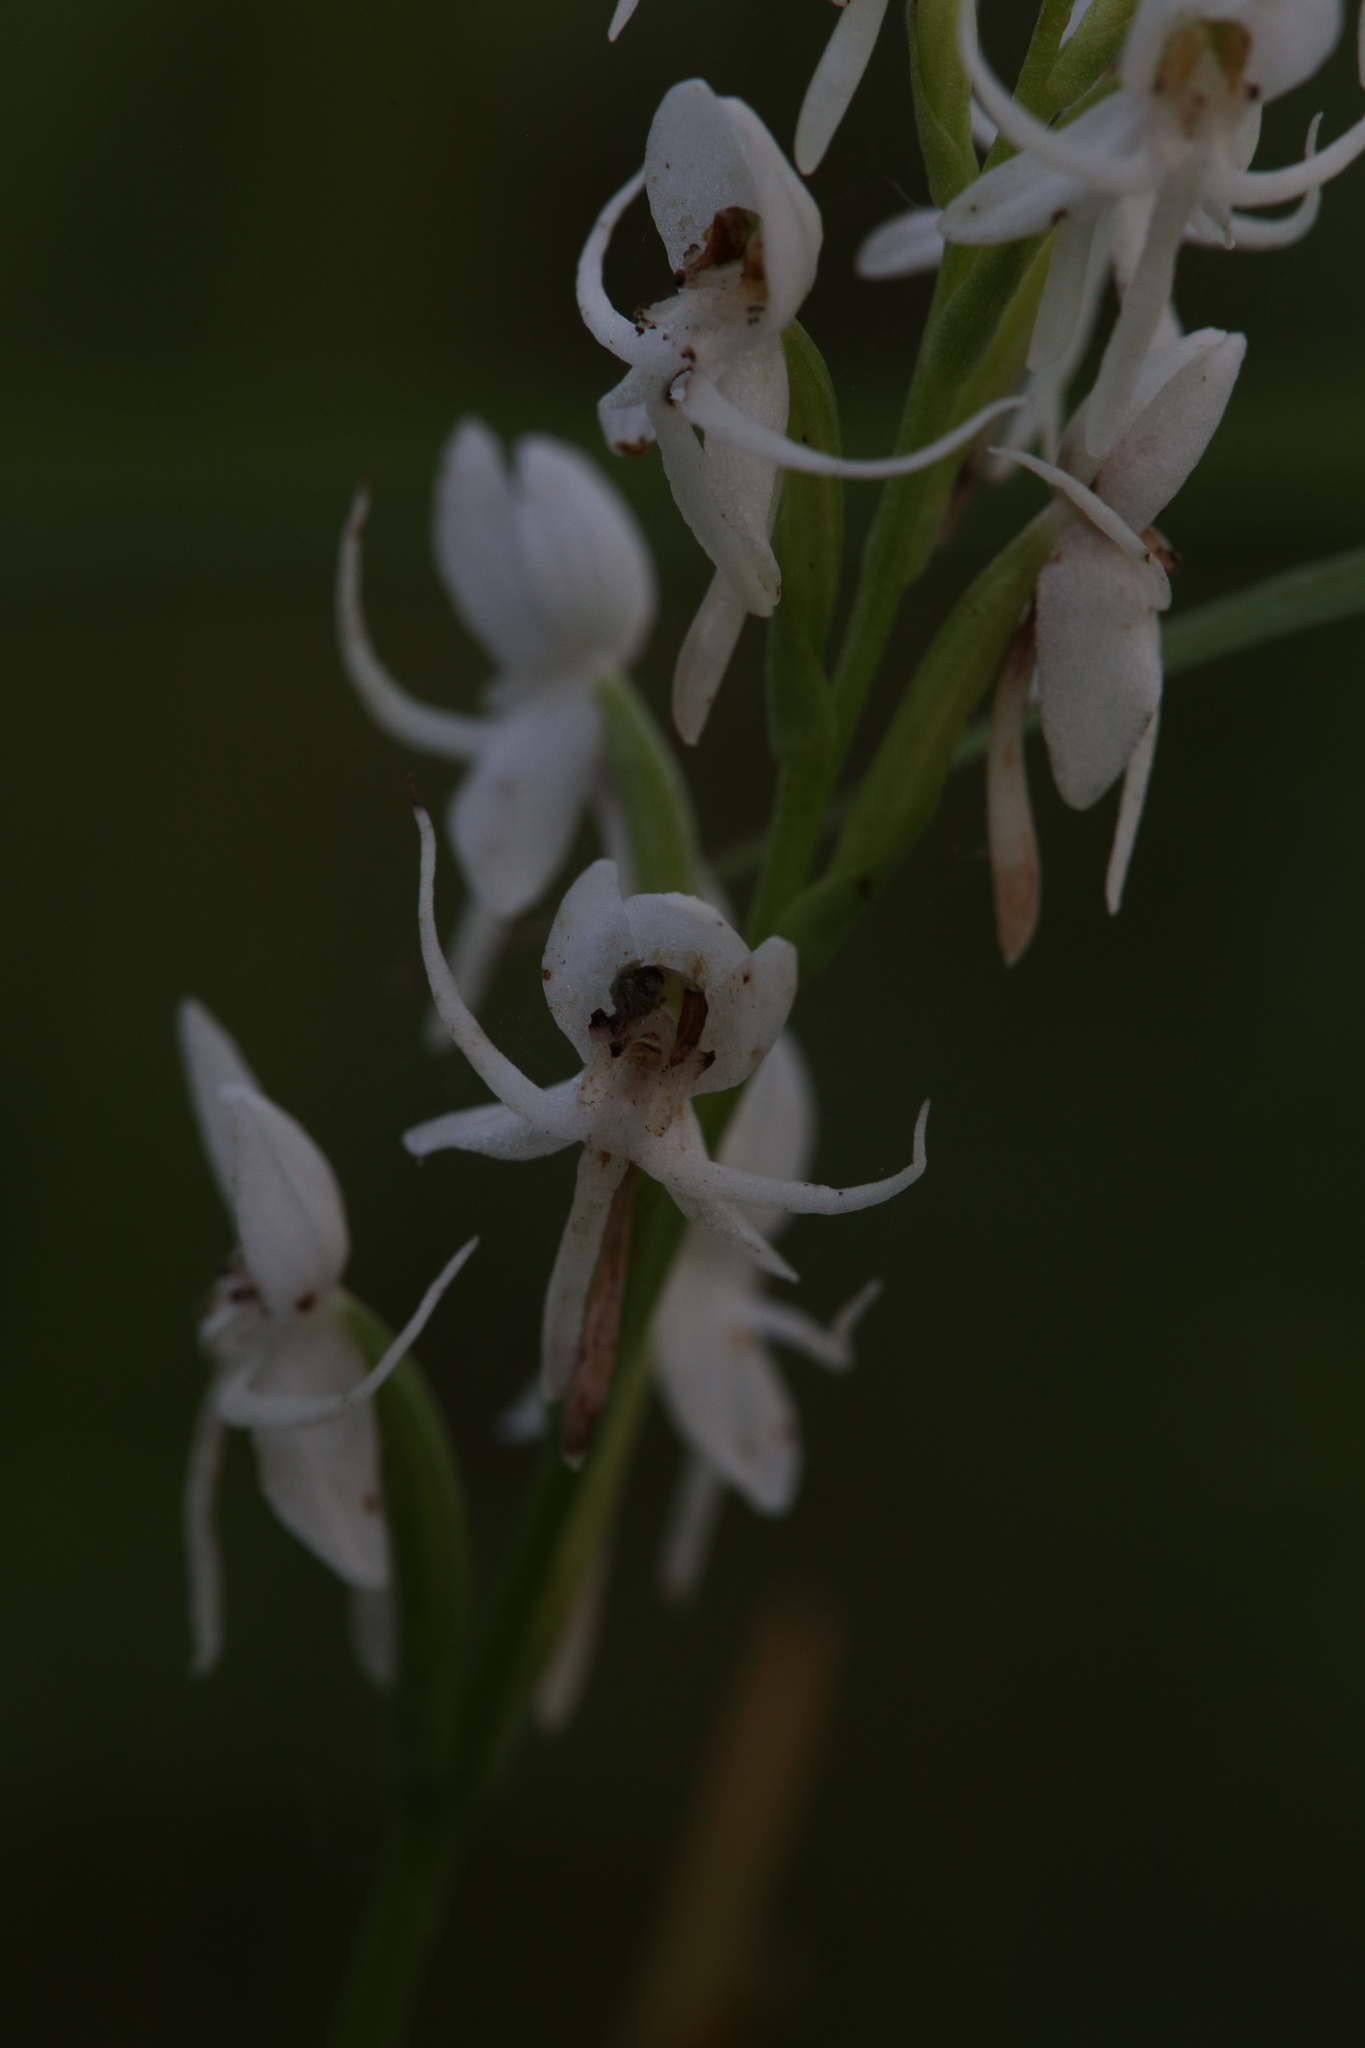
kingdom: Plantae
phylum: Tracheophyta
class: Liliopsida
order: Asparagales
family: Orchidaceae
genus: Habenaria
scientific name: Habenaria propinquior
